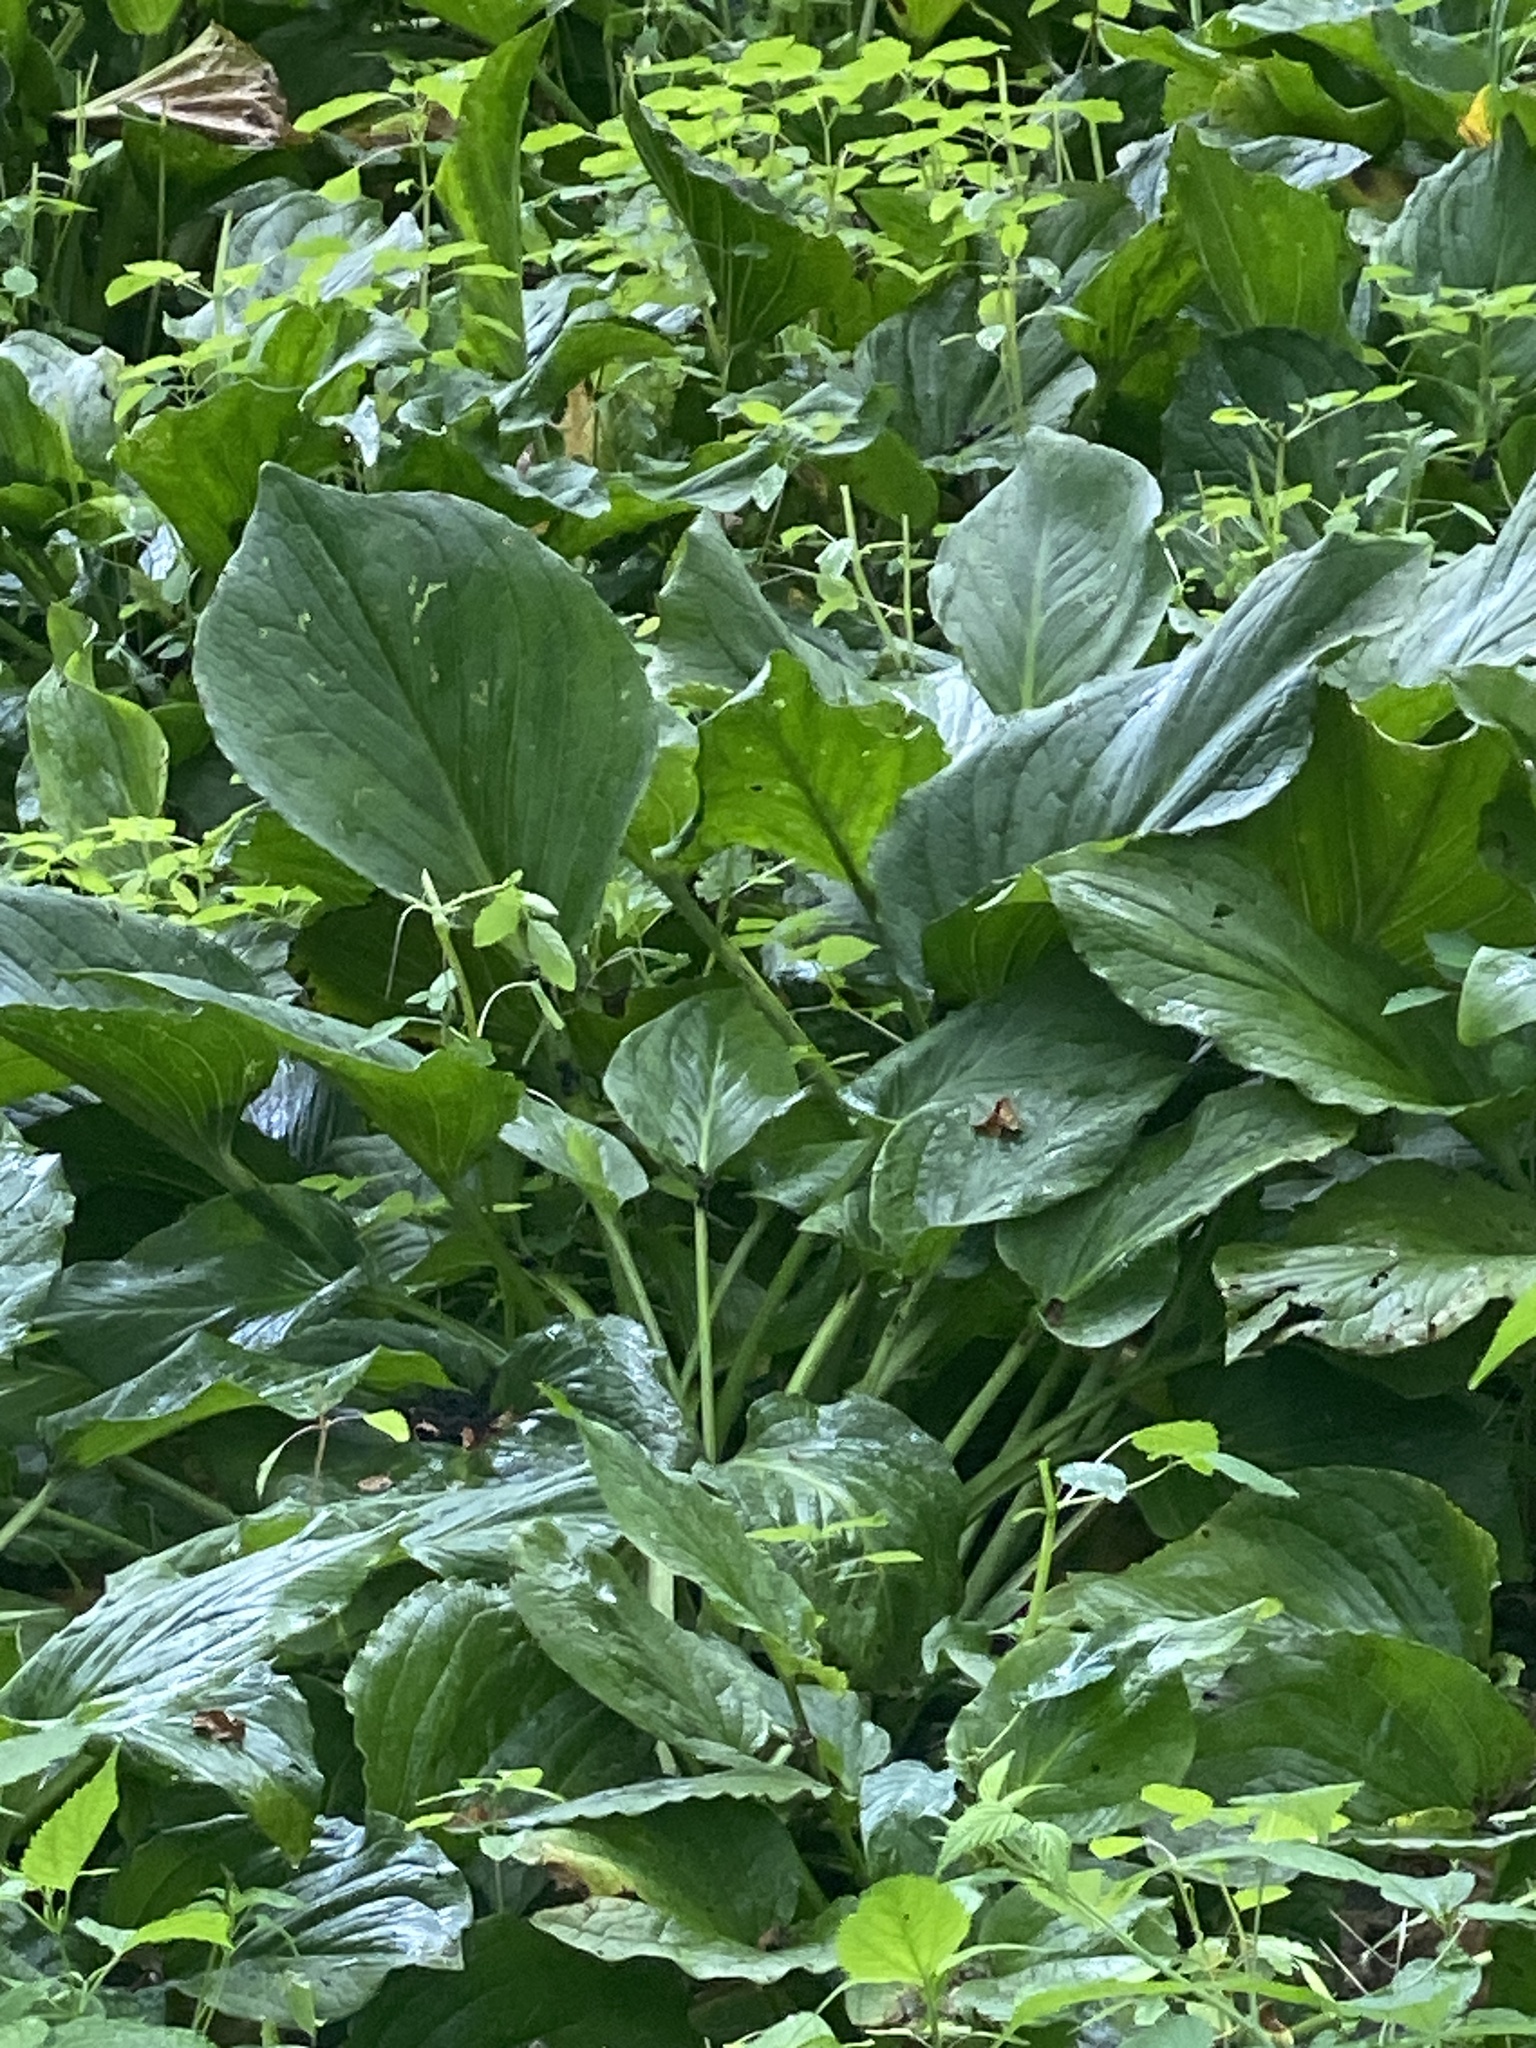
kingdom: Plantae
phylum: Tracheophyta
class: Liliopsida
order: Alismatales
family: Araceae
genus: Symplocarpus
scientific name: Symplocarpus foetidus
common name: Eastern skunk cabbage
